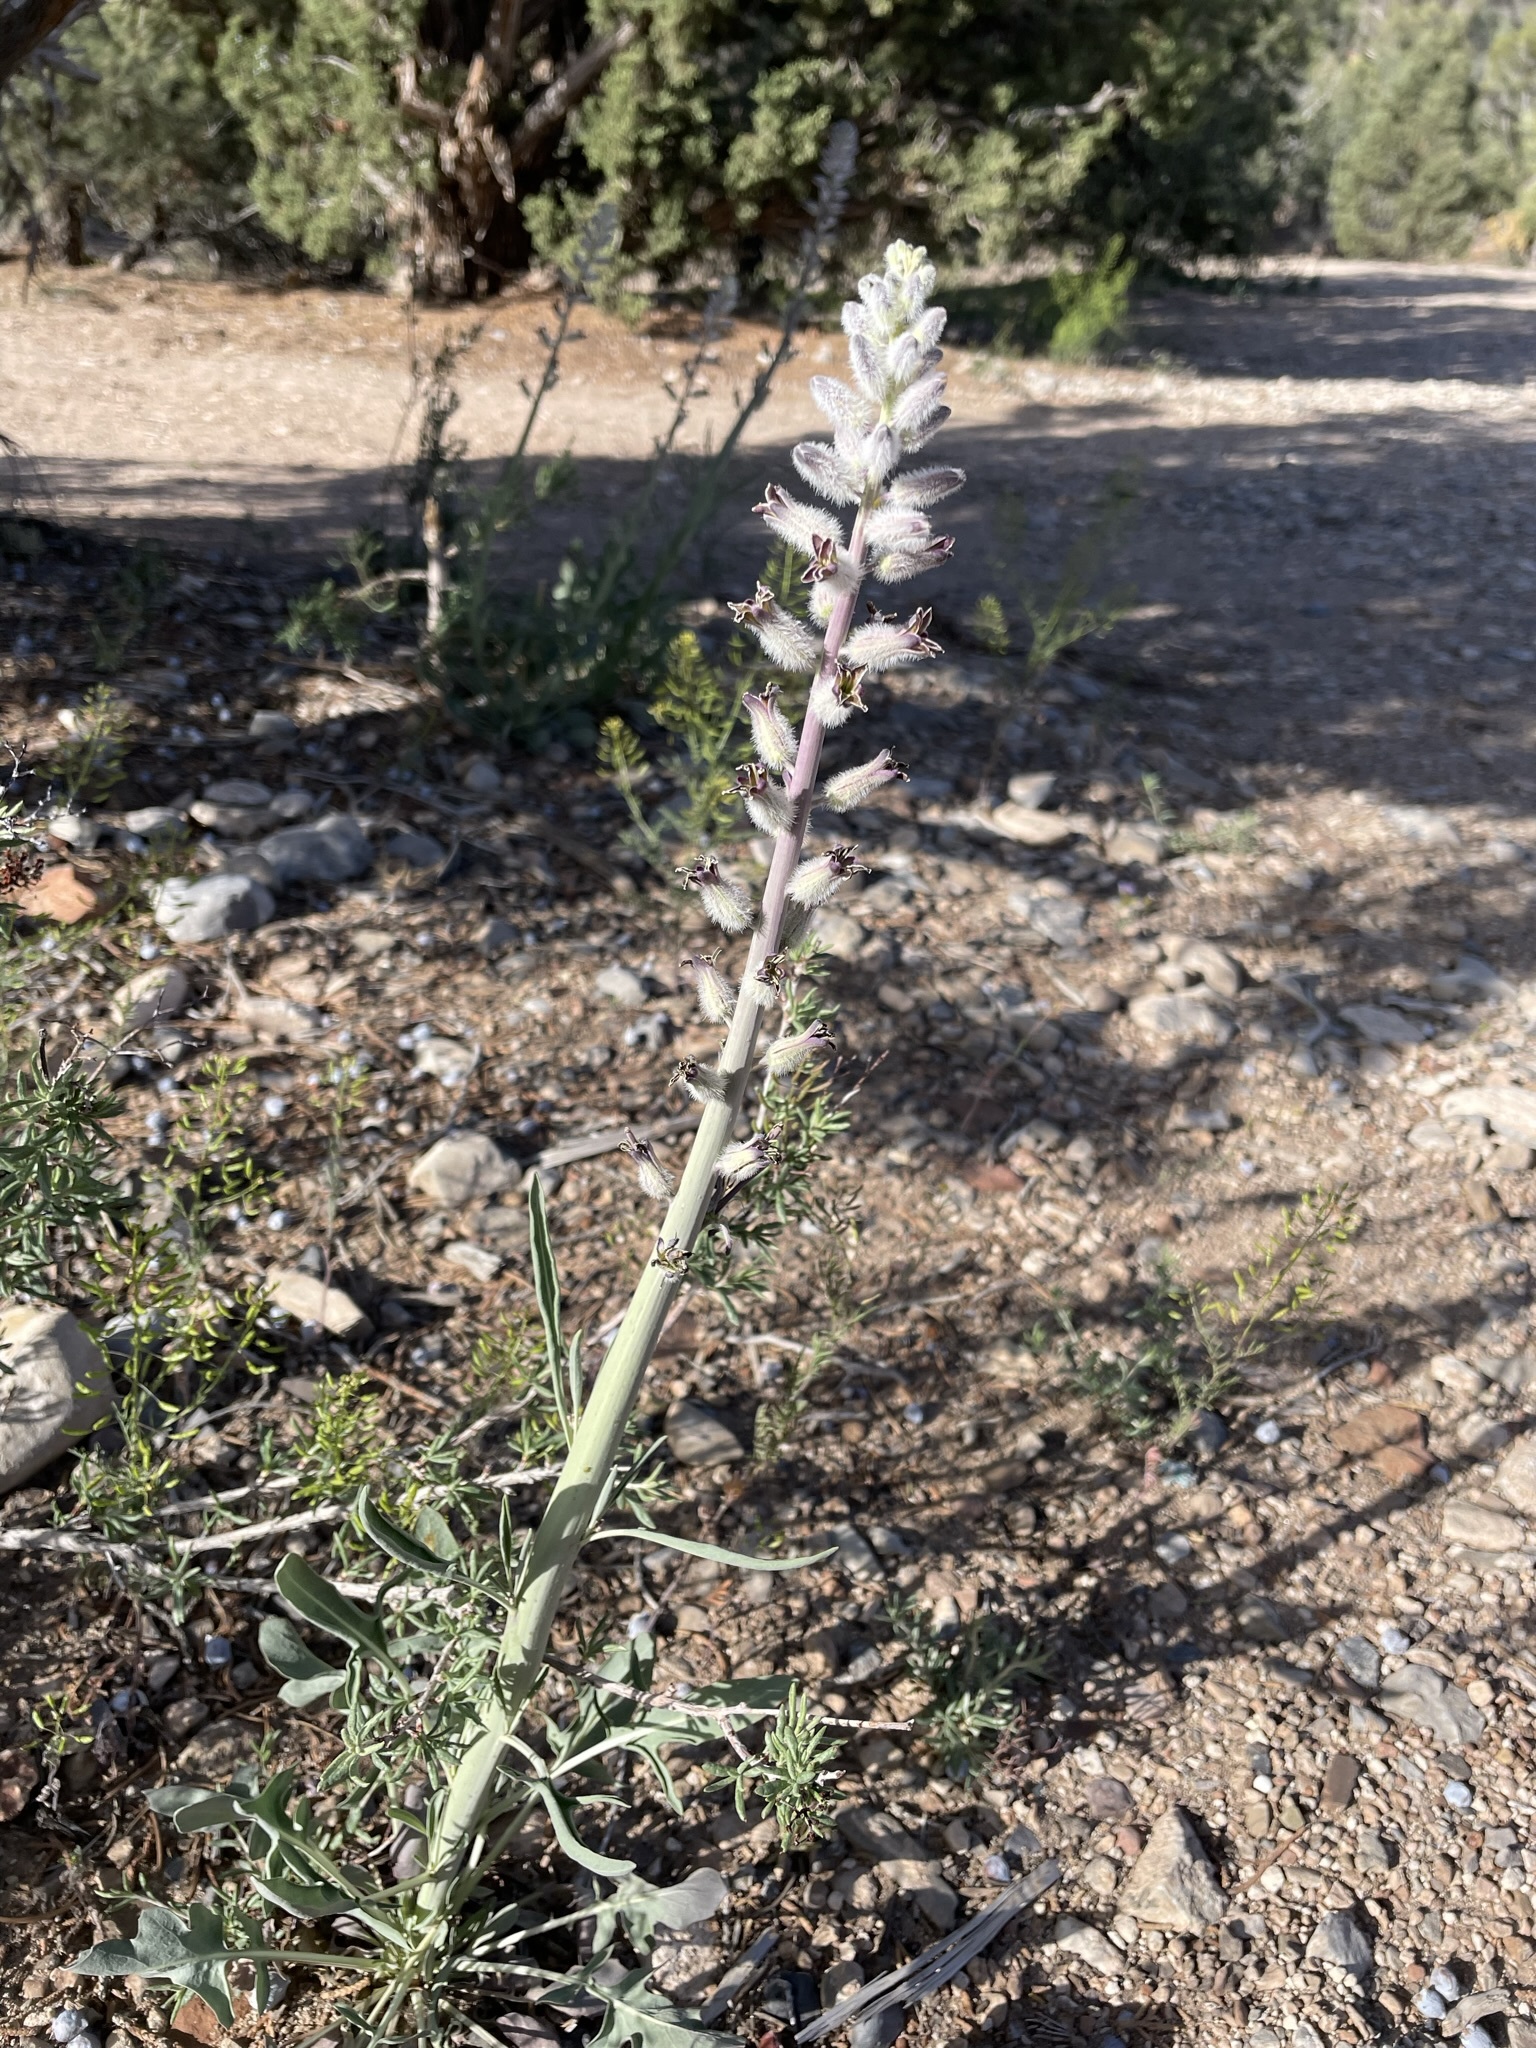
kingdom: Plantae
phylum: Tracheophyta
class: Magnoliopsida
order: Brassicales
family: Brassicaceae
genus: Streptanthus
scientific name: Streptanthus crassicaulis
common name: Thick-stem wild cabbage
